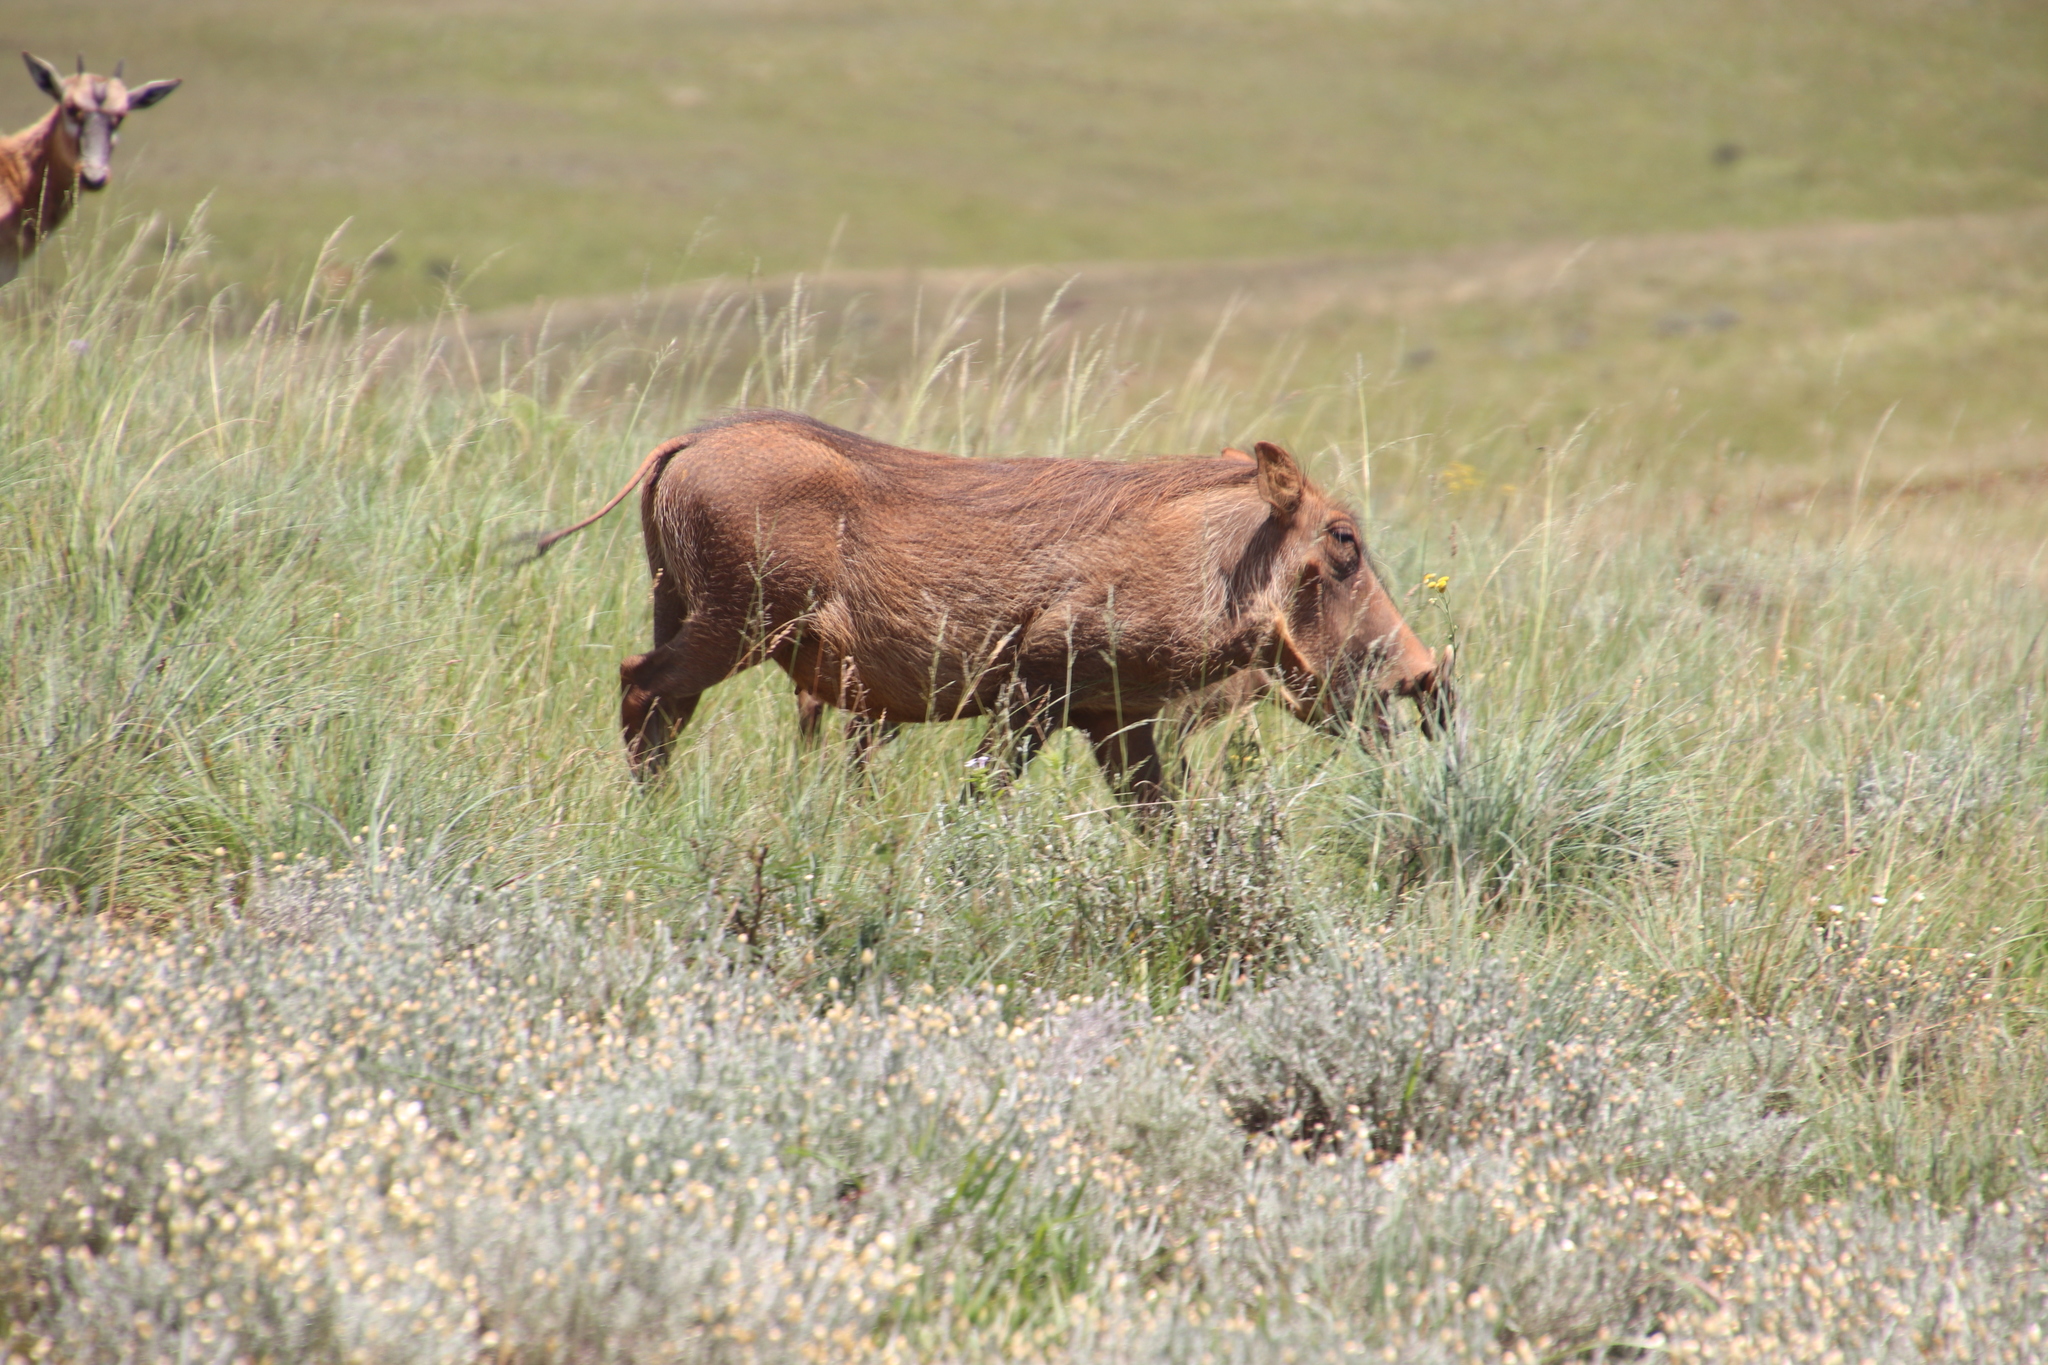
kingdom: Animalia
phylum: Chordata
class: Mammalia
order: Artiodactyla
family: Suidae
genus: Phacochoerus
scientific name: Phacochoerus africanus
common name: Common warthog
